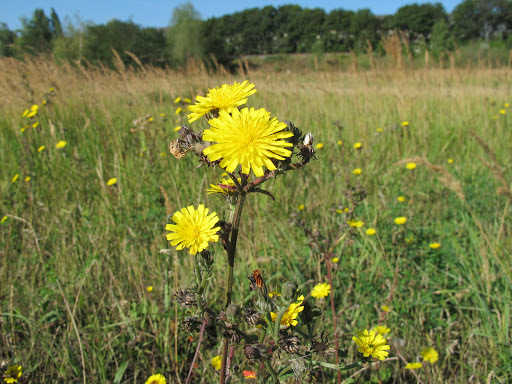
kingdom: Plantae
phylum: Tracheophyta
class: Magnoliopsida
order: Asterales
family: Asteraceae
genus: Sonchus
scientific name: Sonchus arvensis
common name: Perennial sow-thistle
